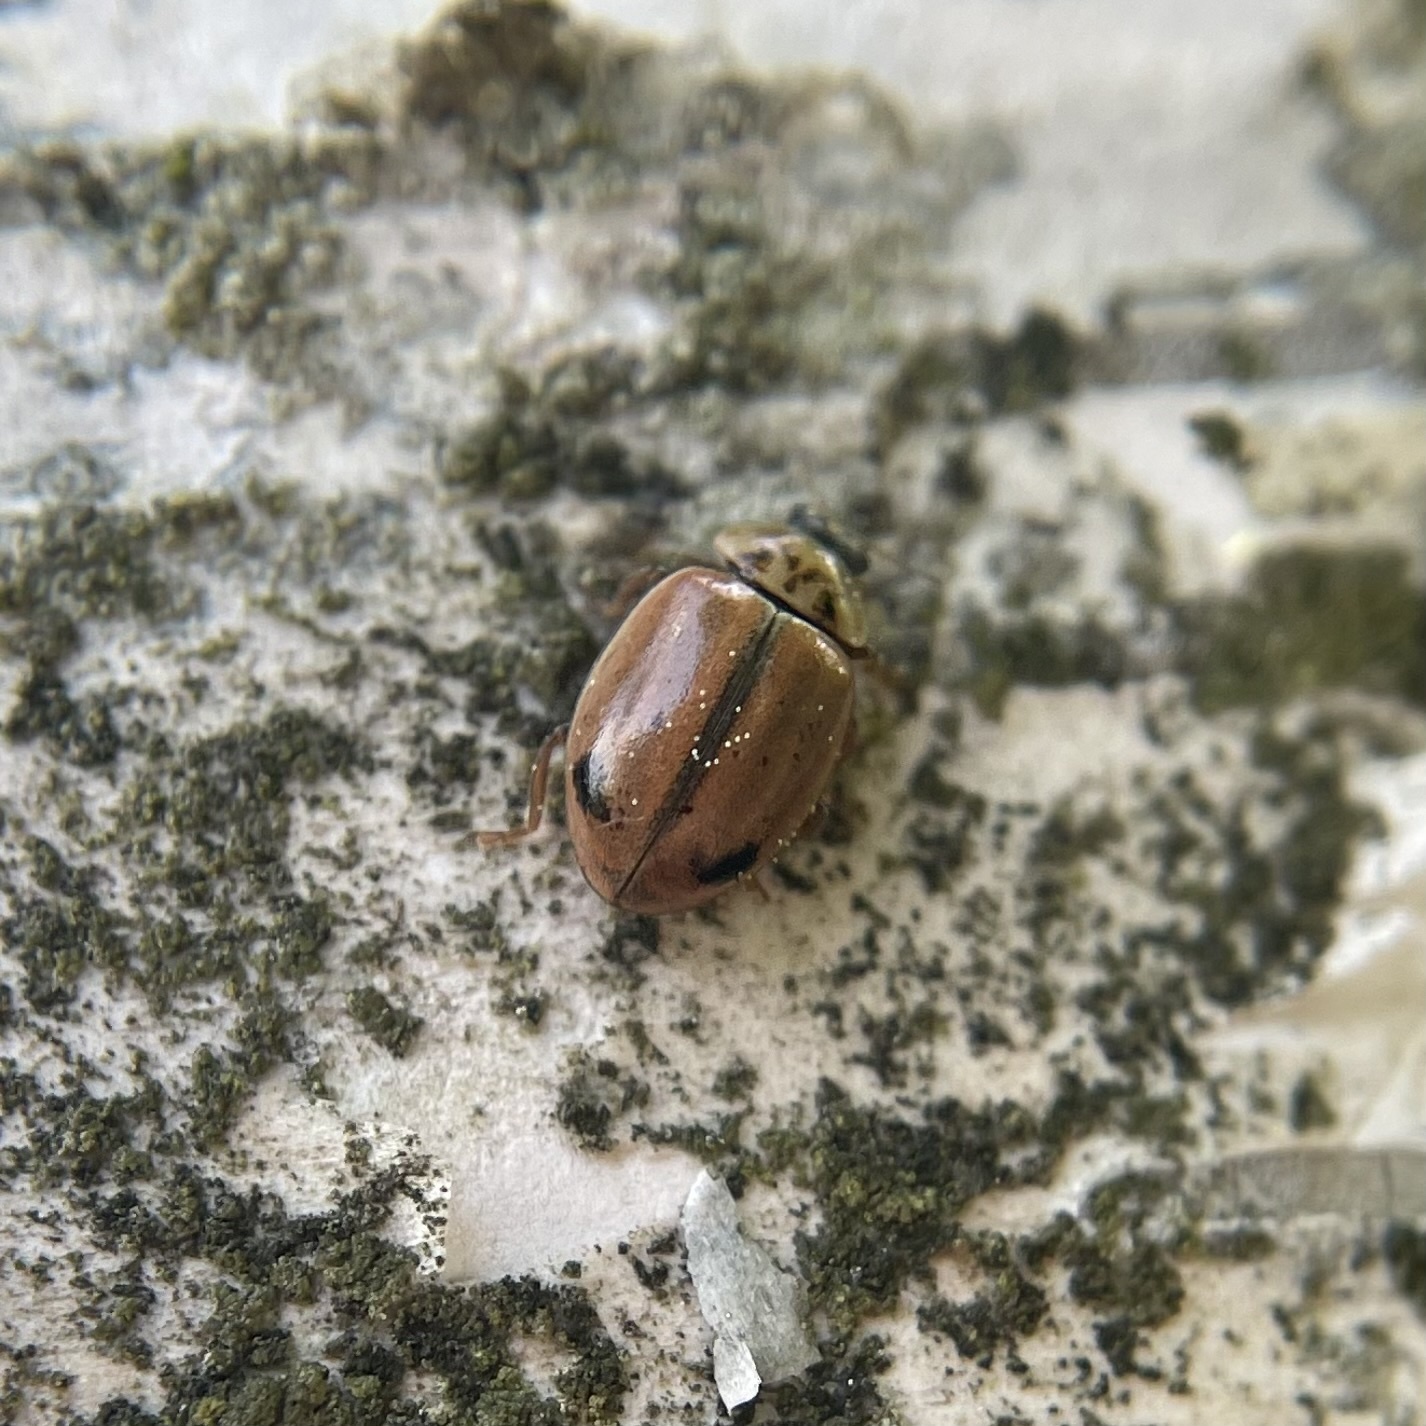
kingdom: Animalia
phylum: Arthropoda
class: Insecta
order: Coleoptera
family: Coccinellidae
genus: Aphidecta
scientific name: Aphidecta obliterata
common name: Larch ladybird
